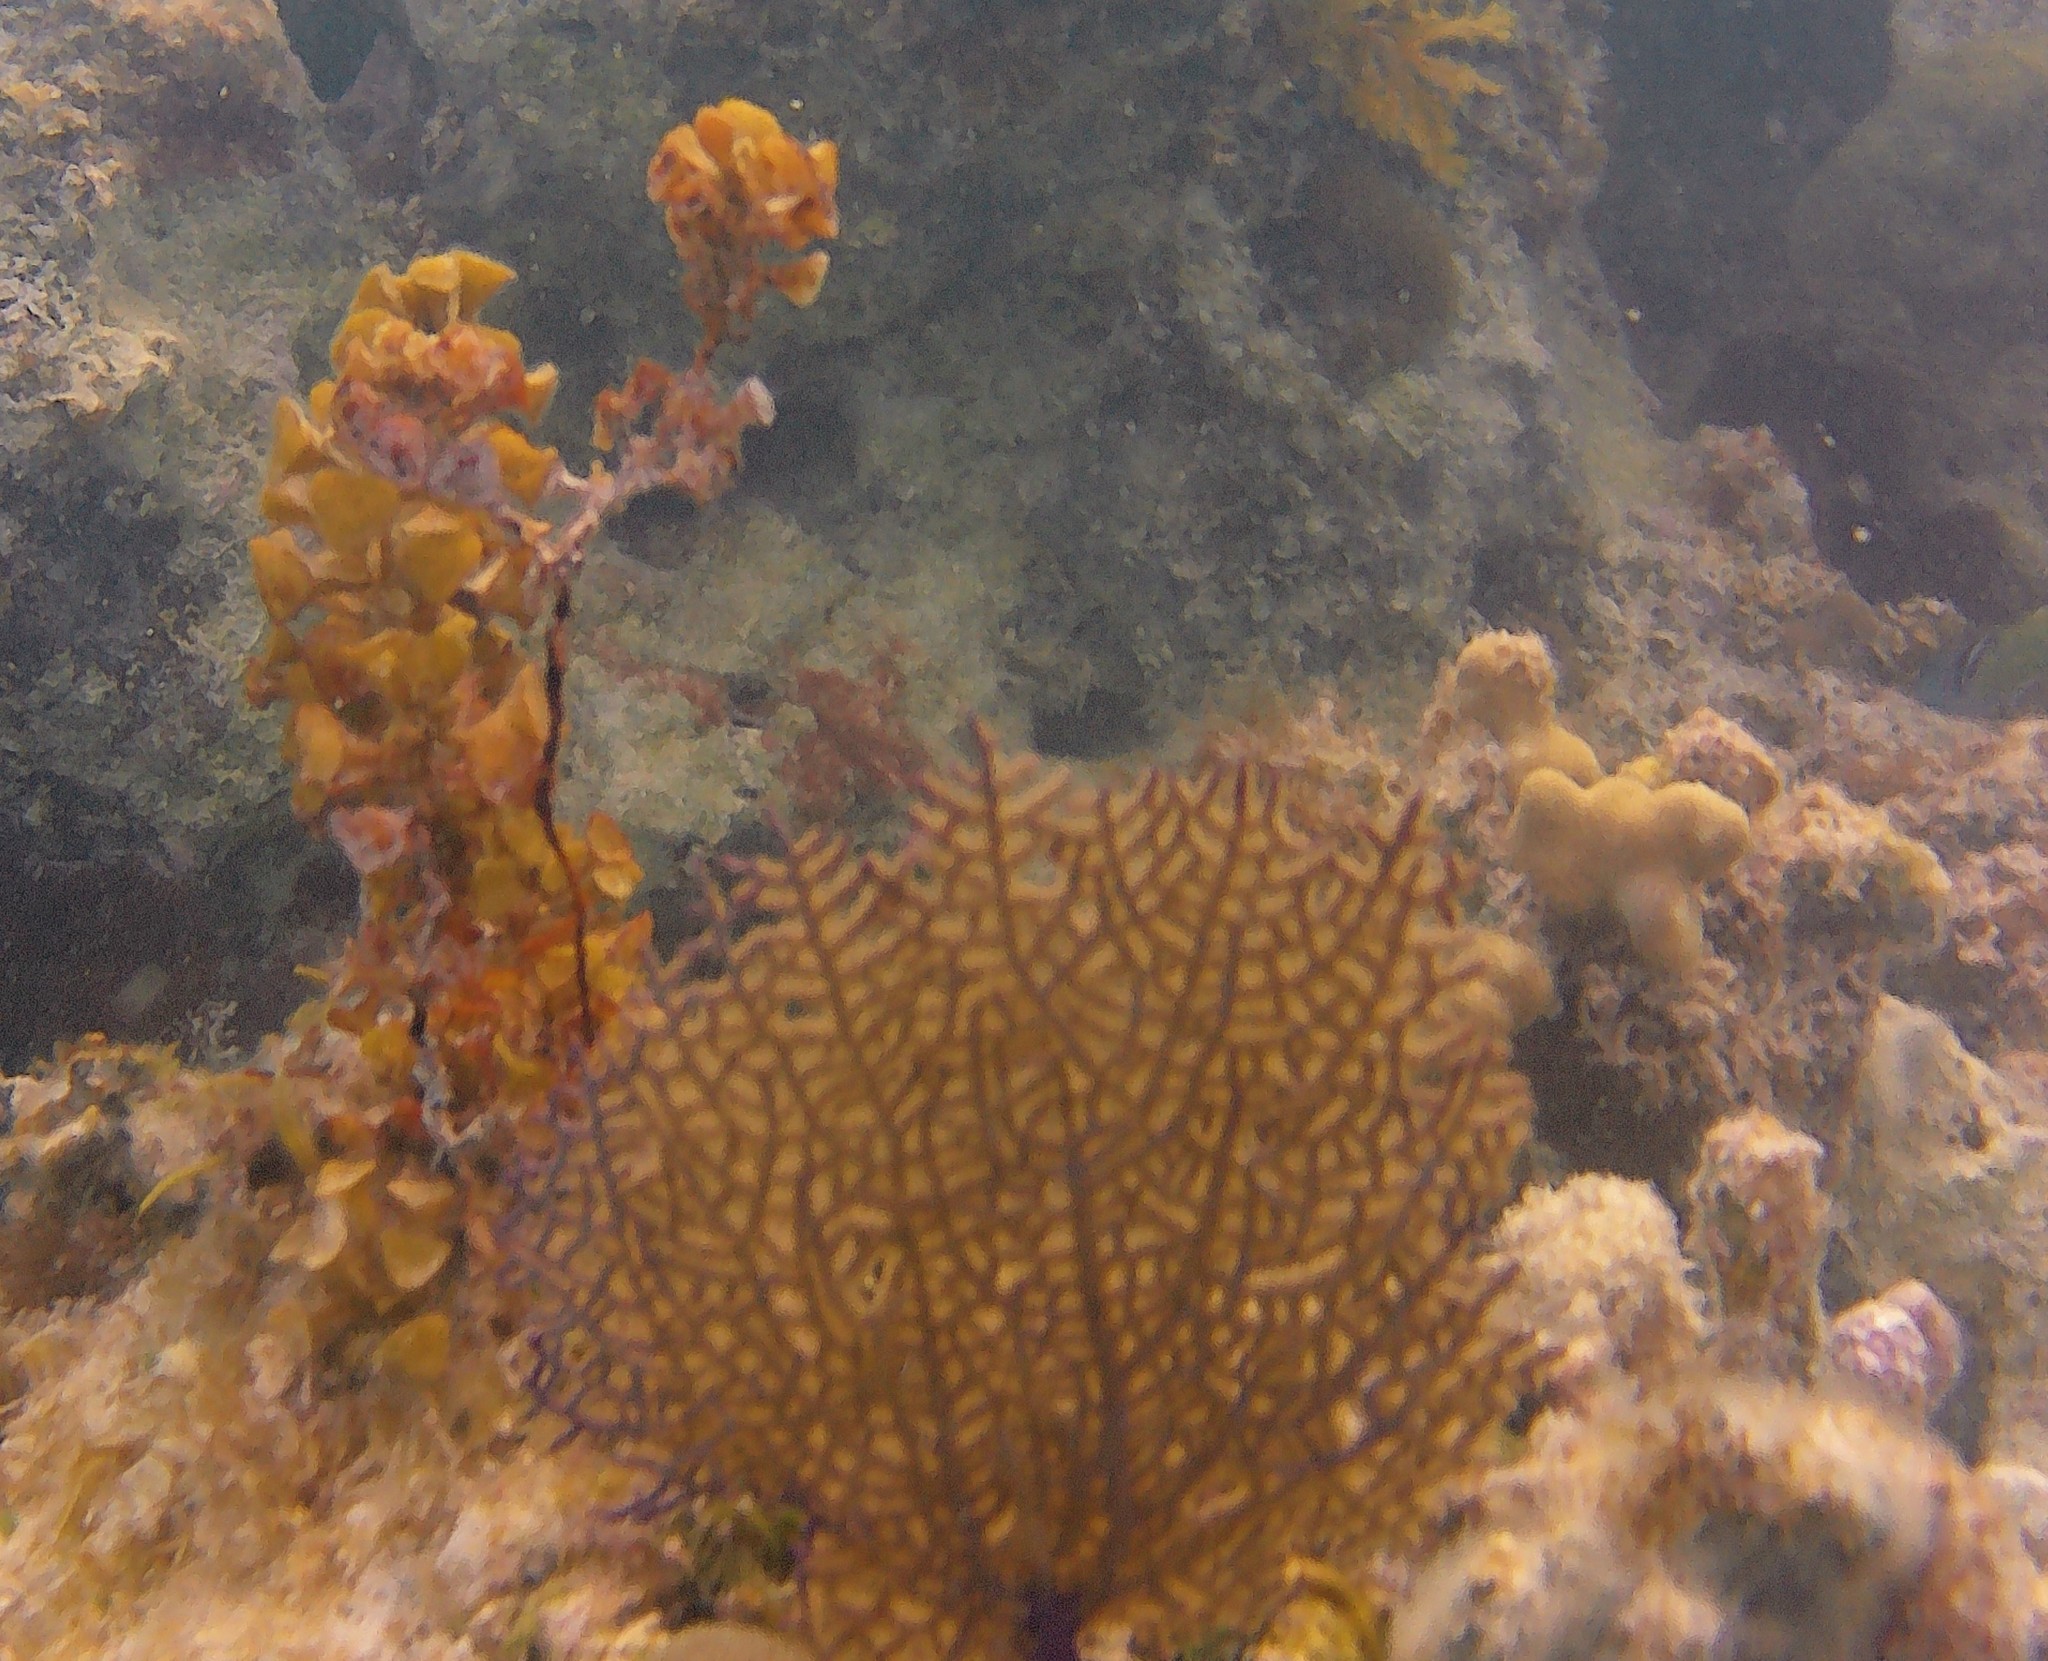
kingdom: Animalia
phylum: Cnidaria
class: Anthozoa
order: Malacalcyonacea
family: Gorgoniidae
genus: Gorgonia
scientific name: Gorgonia ventalina
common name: Common sea fan
